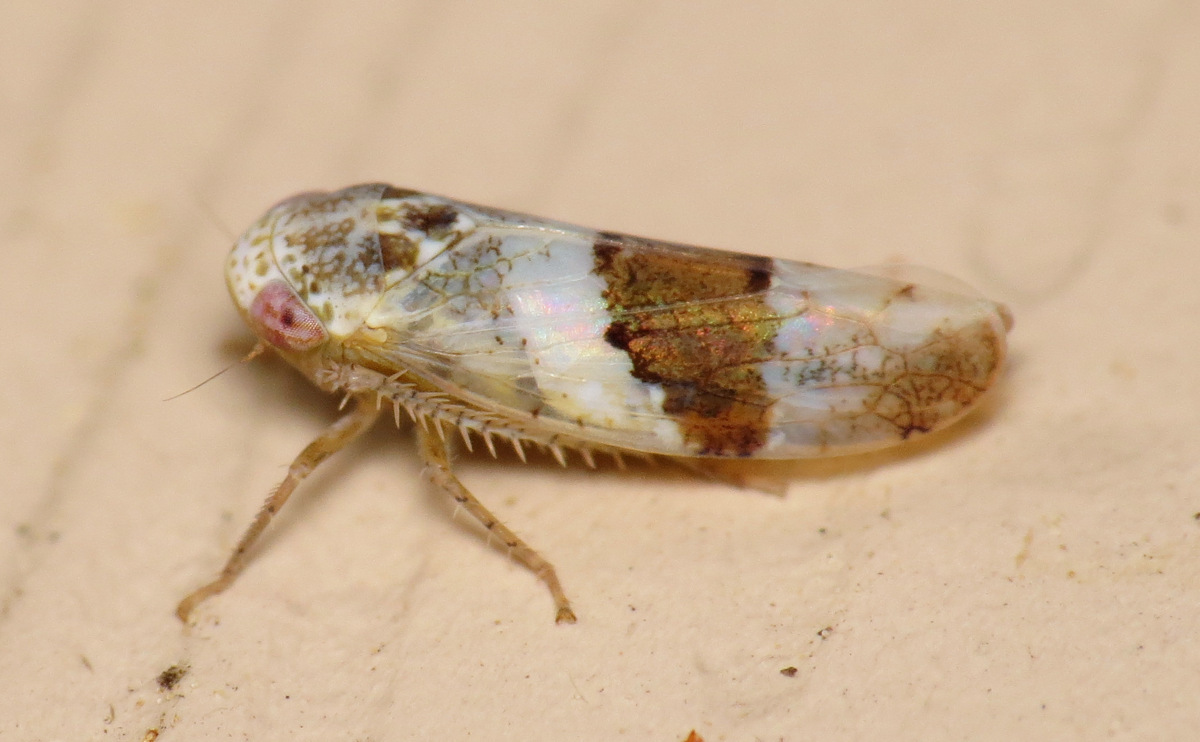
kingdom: Animalia
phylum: Arthropoda
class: Insecta
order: Hemiptera
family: Cicadellidae
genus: Norvellina
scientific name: Norvellina seminuda
